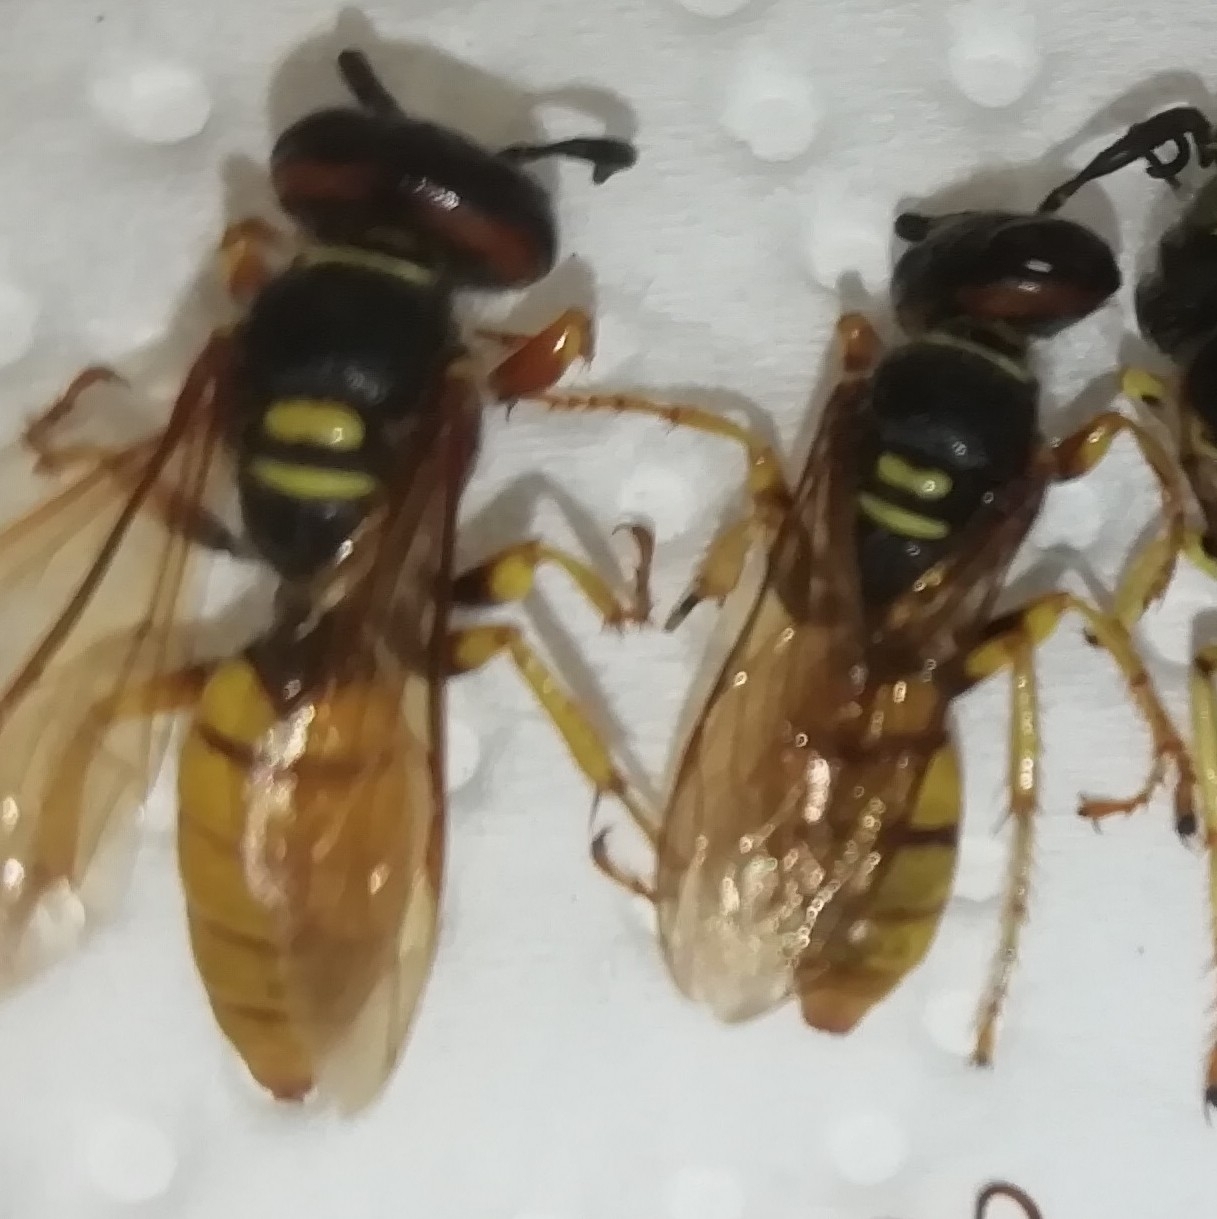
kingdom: Animalia
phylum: Arthropoda
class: Insecta
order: Hymenoptera
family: Crabronidae
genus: Philanthus
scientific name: Philanthus triangulum
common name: Bee wolf
